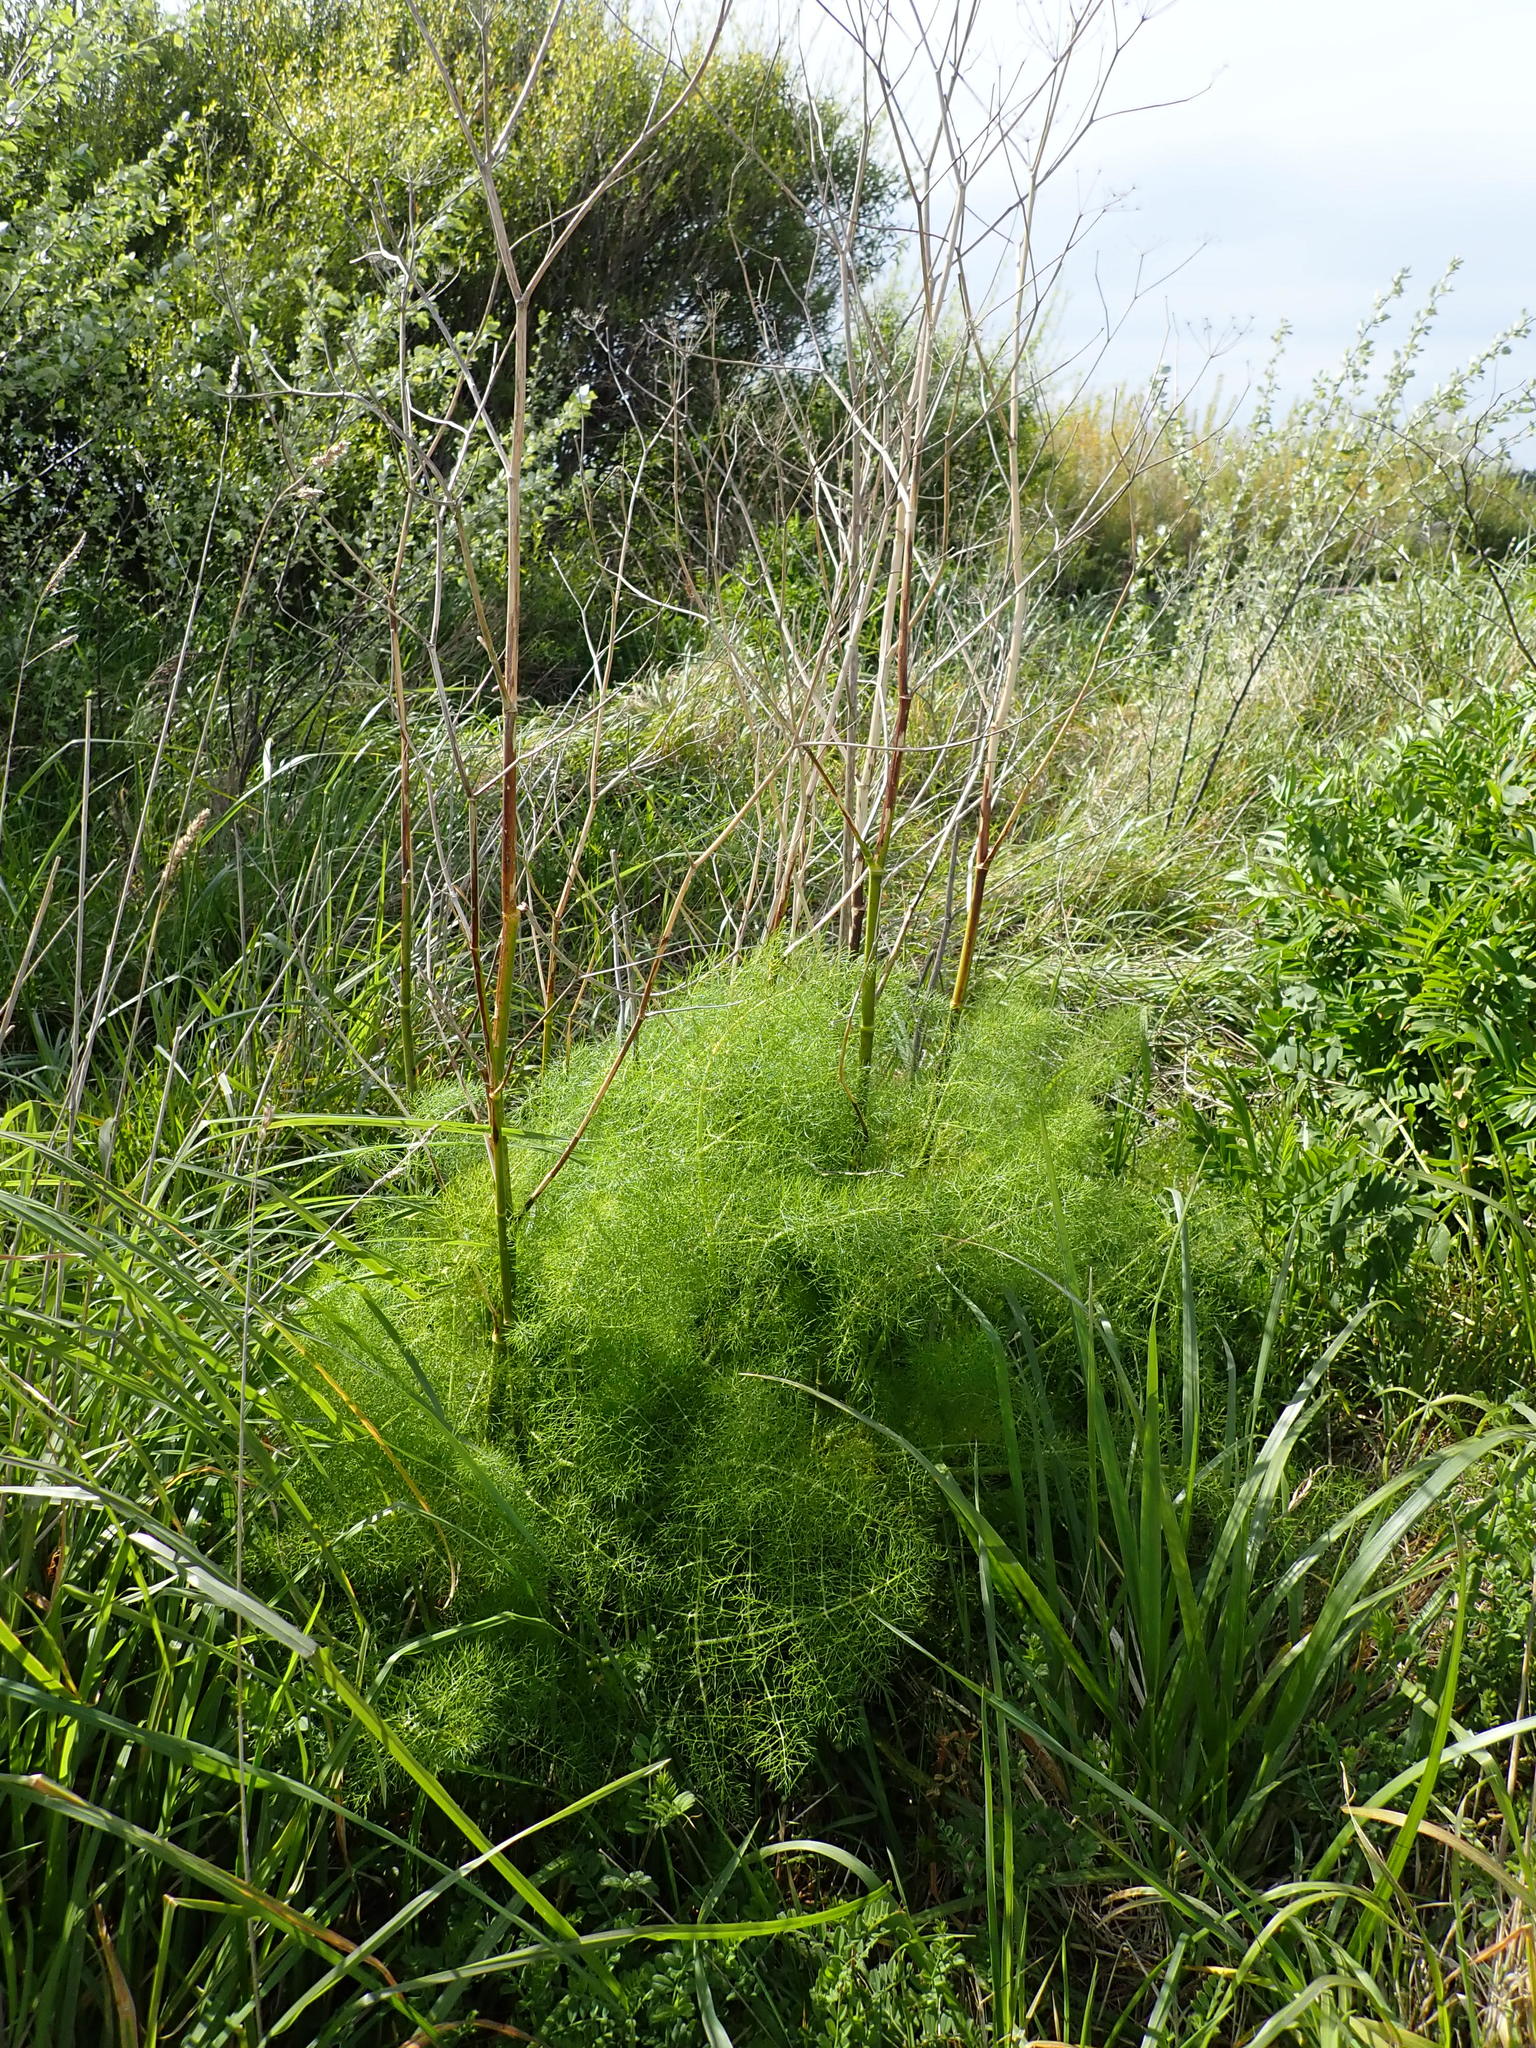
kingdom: Plantae
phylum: Tracheophyta
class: Magnoliopsida
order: Apiales
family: Apiaceae
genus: Foeniculum
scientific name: Foeniculum vulgare
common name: Fennel
